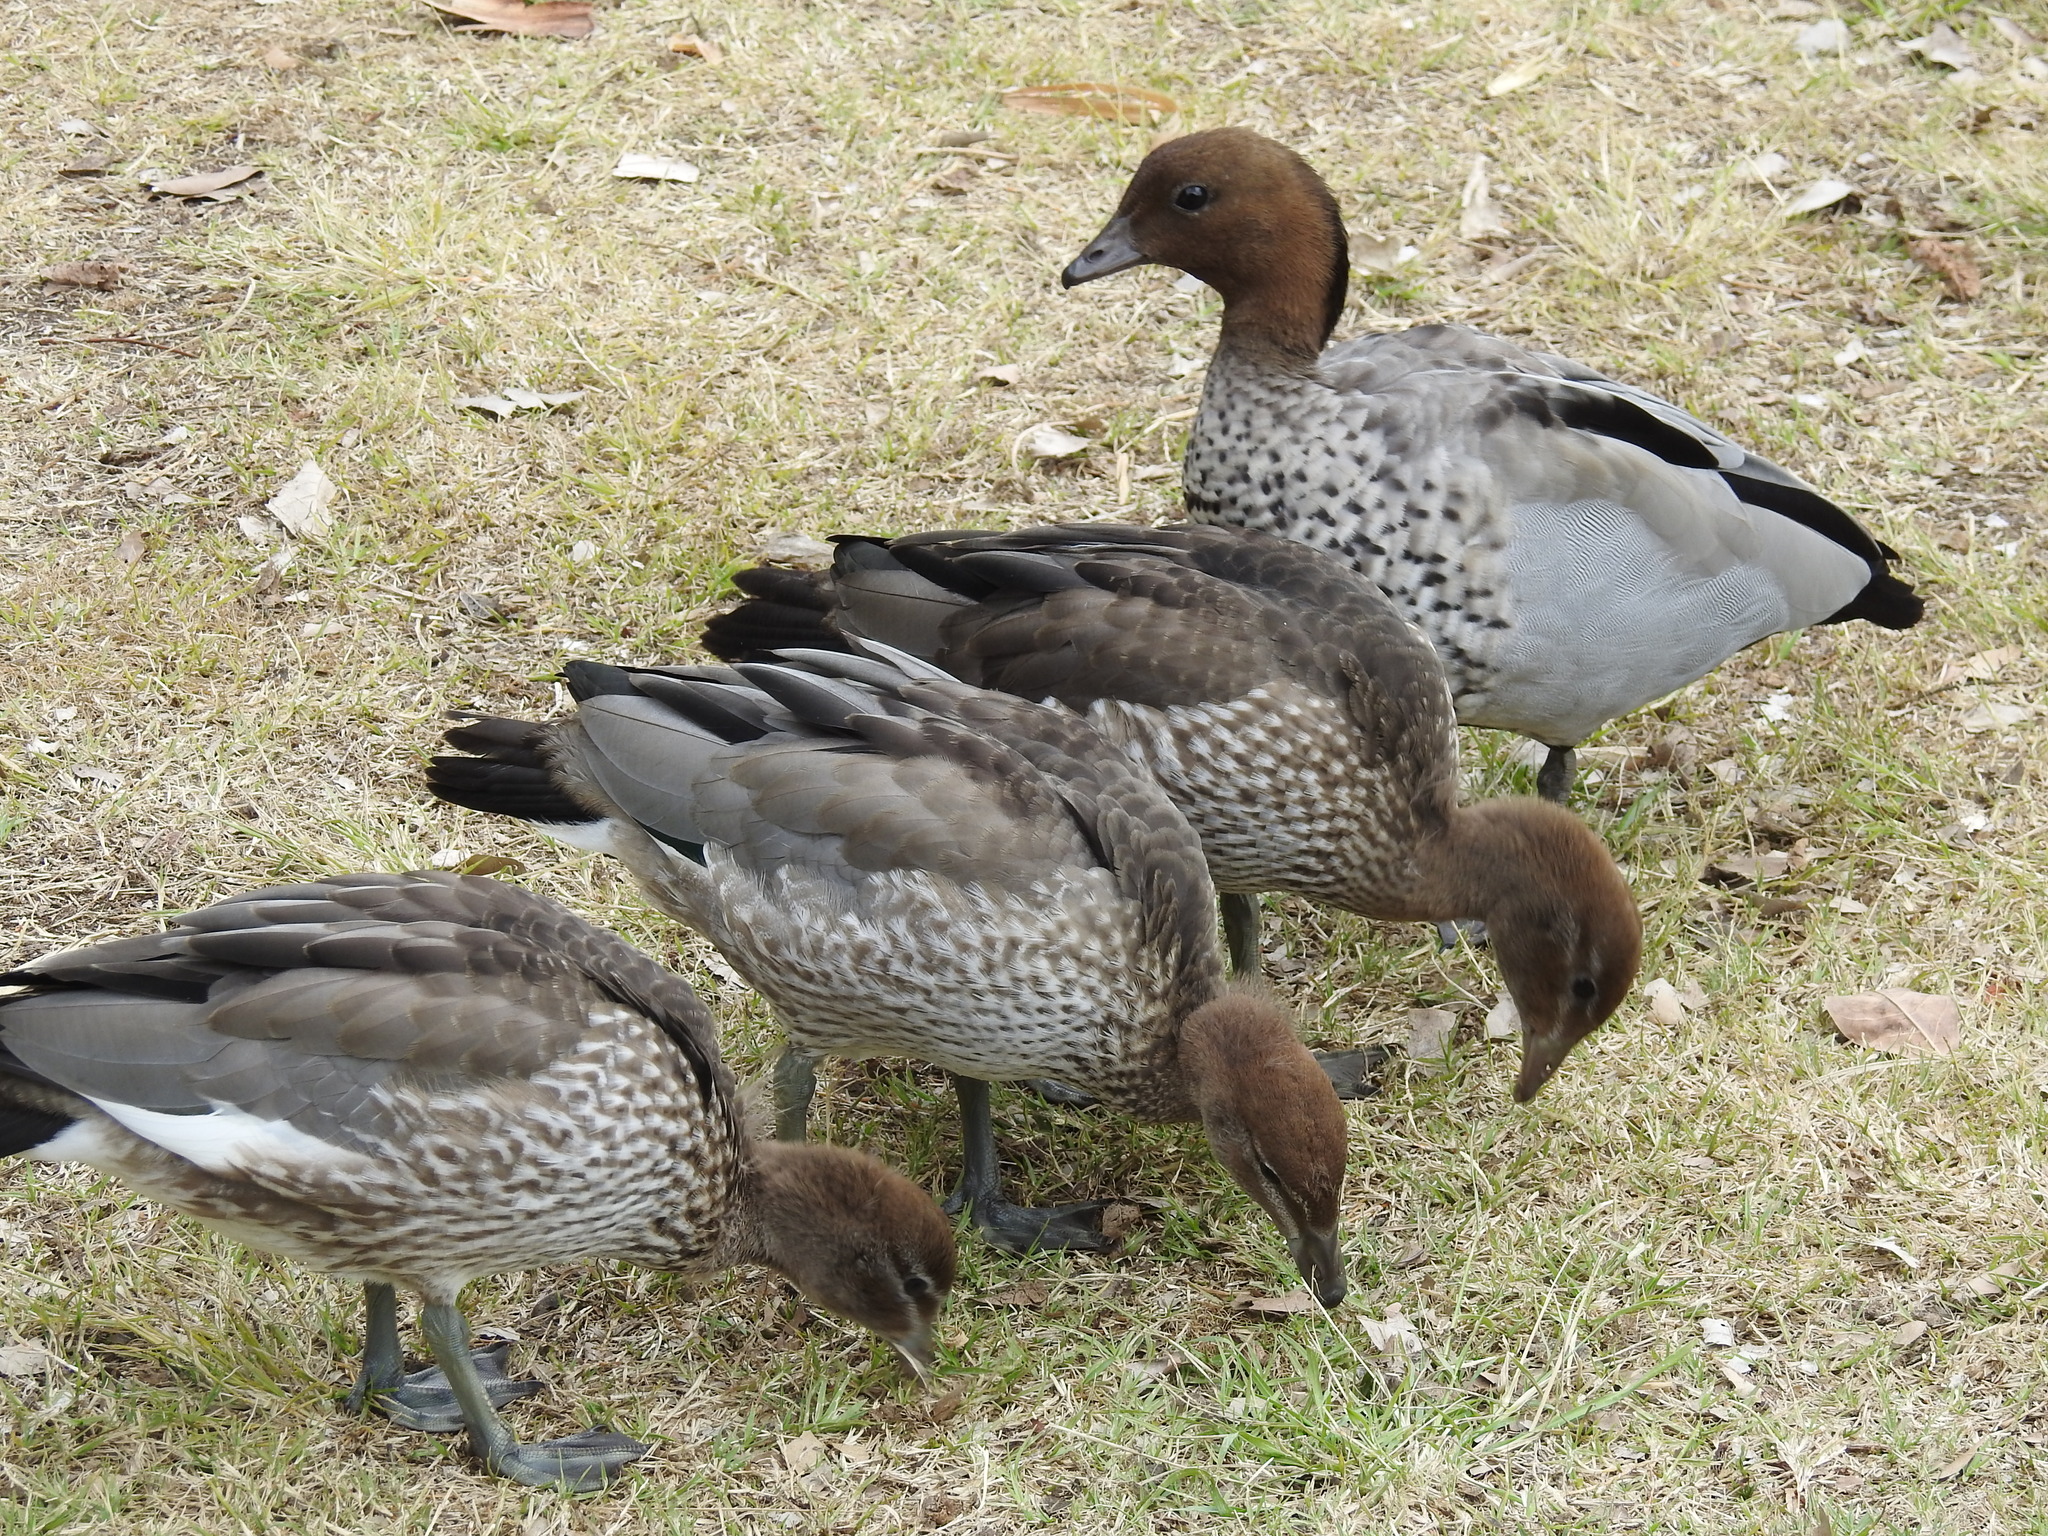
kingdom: Animalia
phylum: Chordata
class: Aves
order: Anseriformes
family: Anatidae
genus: Chenonetta
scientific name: Chenonetta jubata
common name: Maned duck
